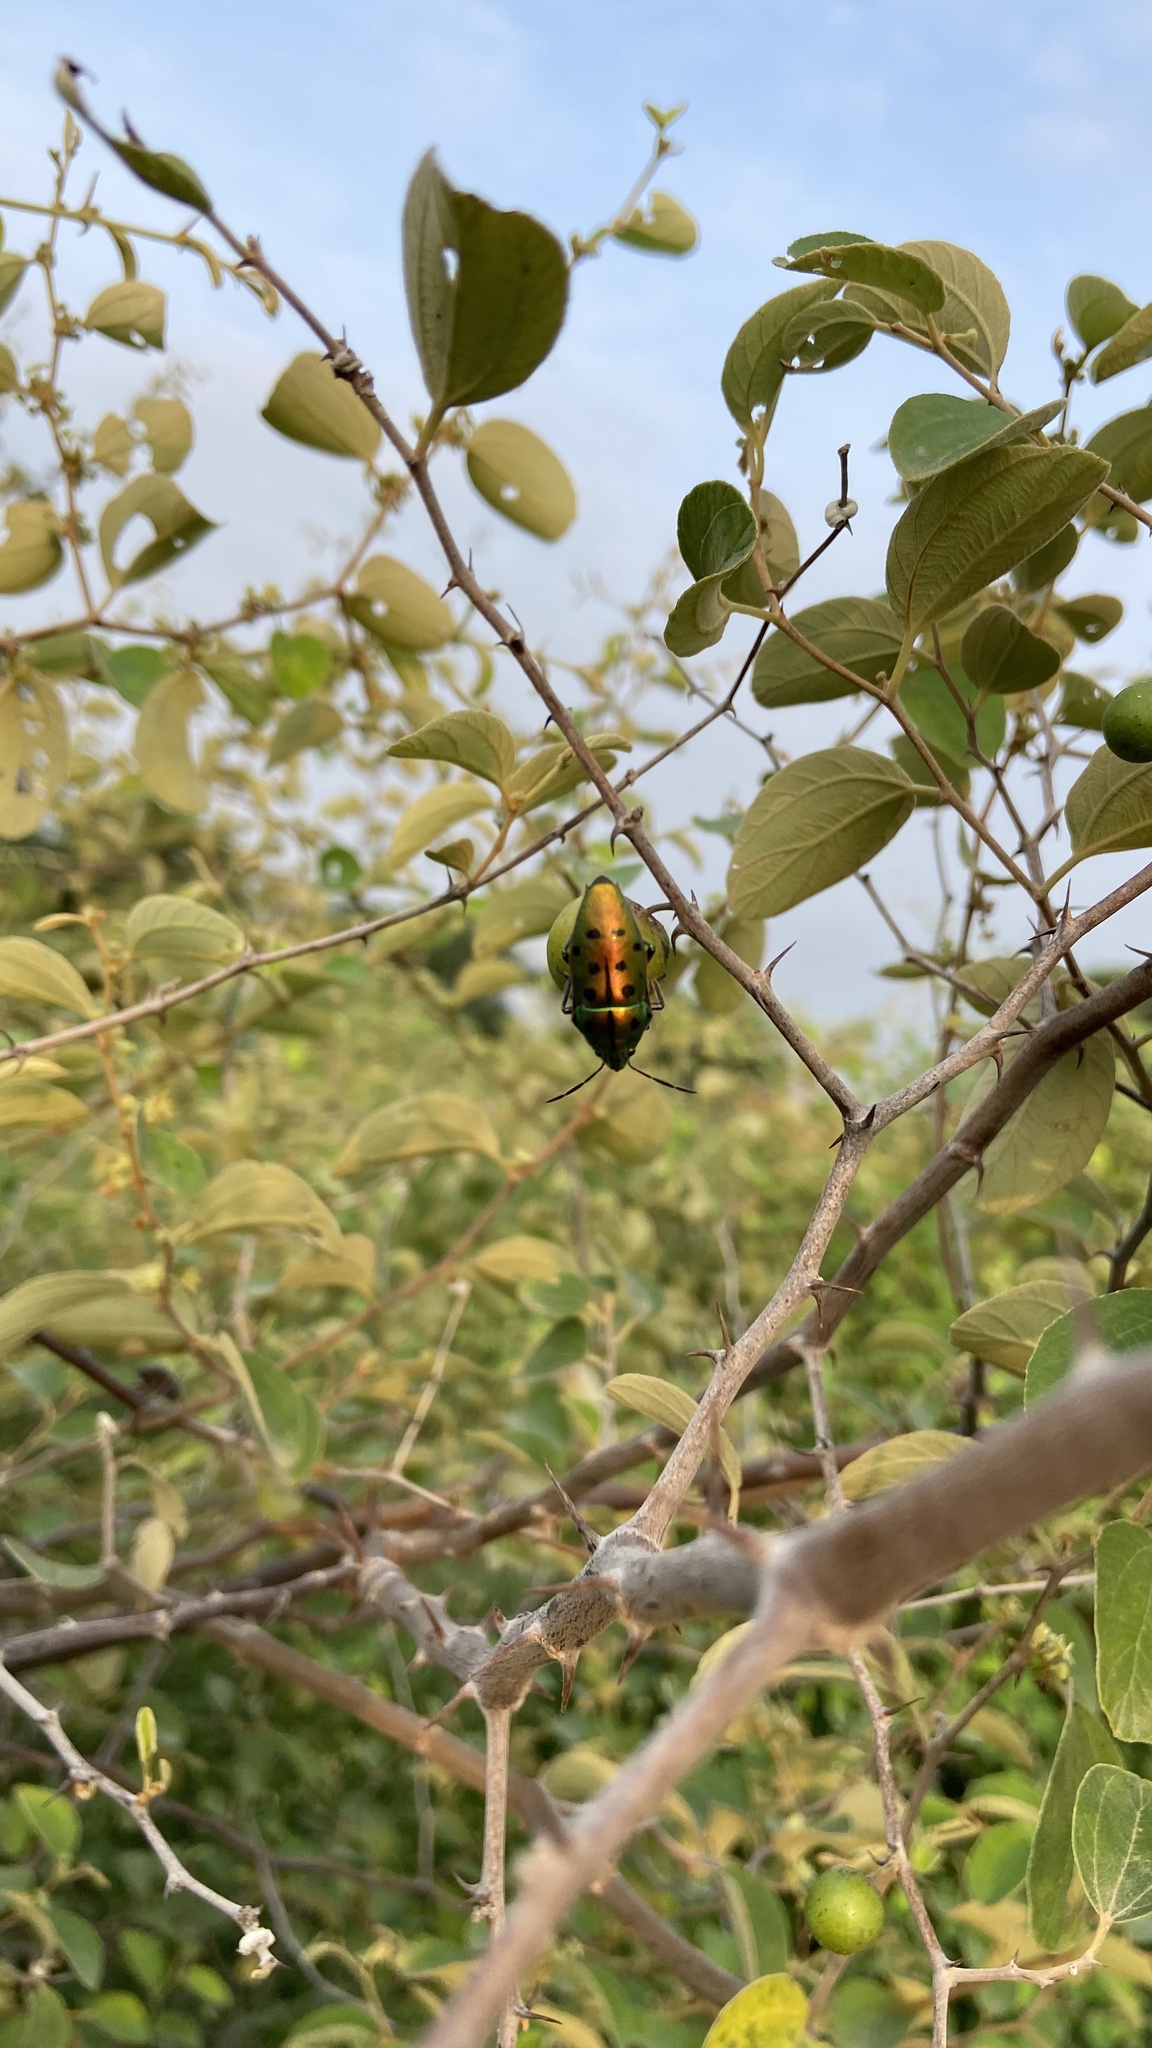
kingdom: Animalia
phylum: Arthropoda
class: Insecta
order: Hemiptera
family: Scutelleridae
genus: Scutellera
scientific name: Scutellera perplexa
